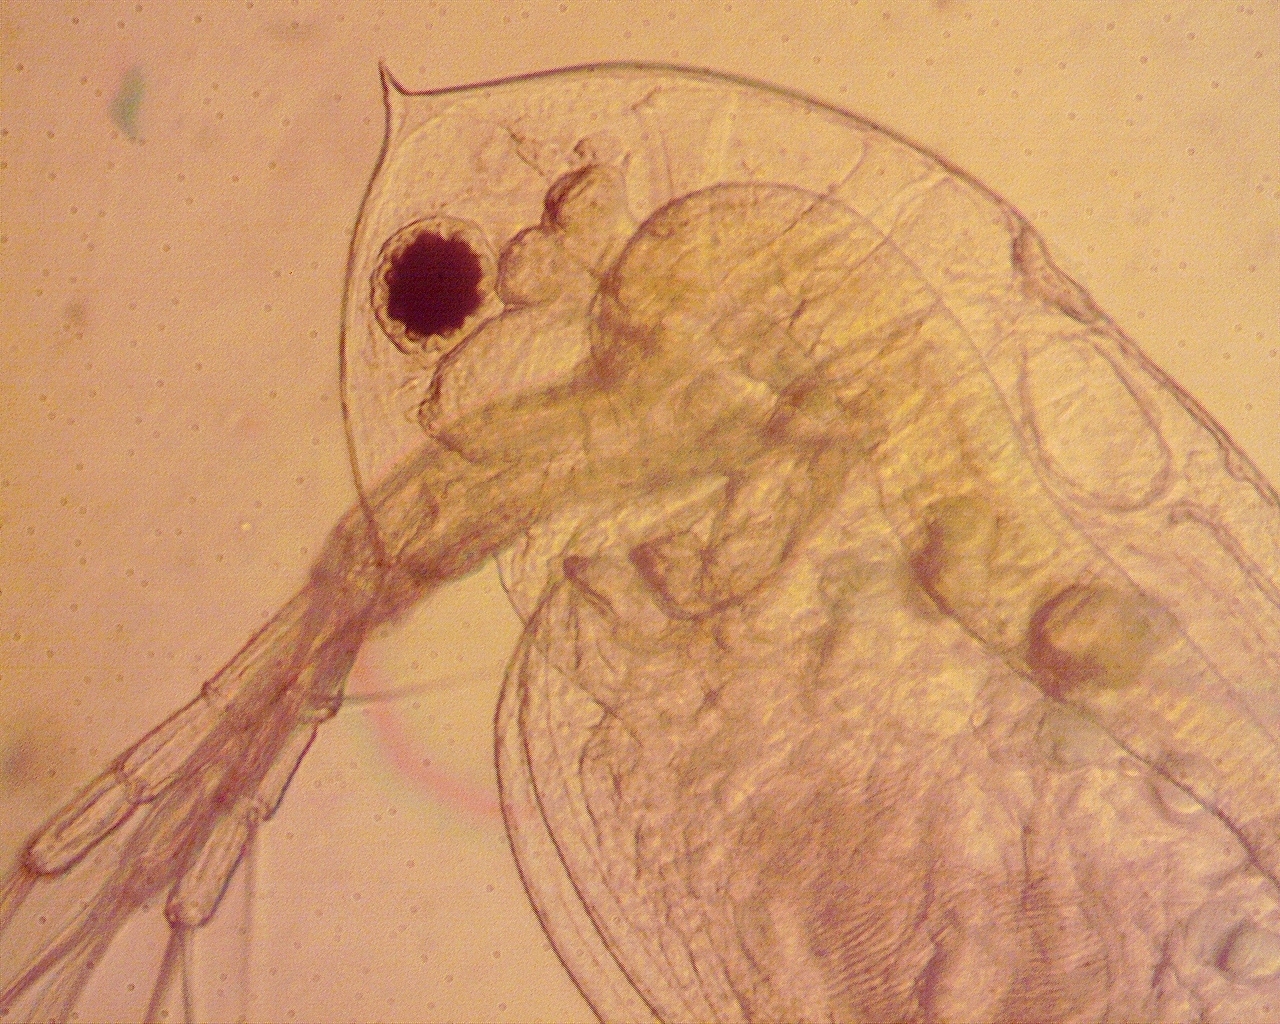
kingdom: Animalia
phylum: Arthropoda
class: Branchiopoda
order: Diplostraca
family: Daphniidae
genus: Daphnia
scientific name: Daphnia ambigua
